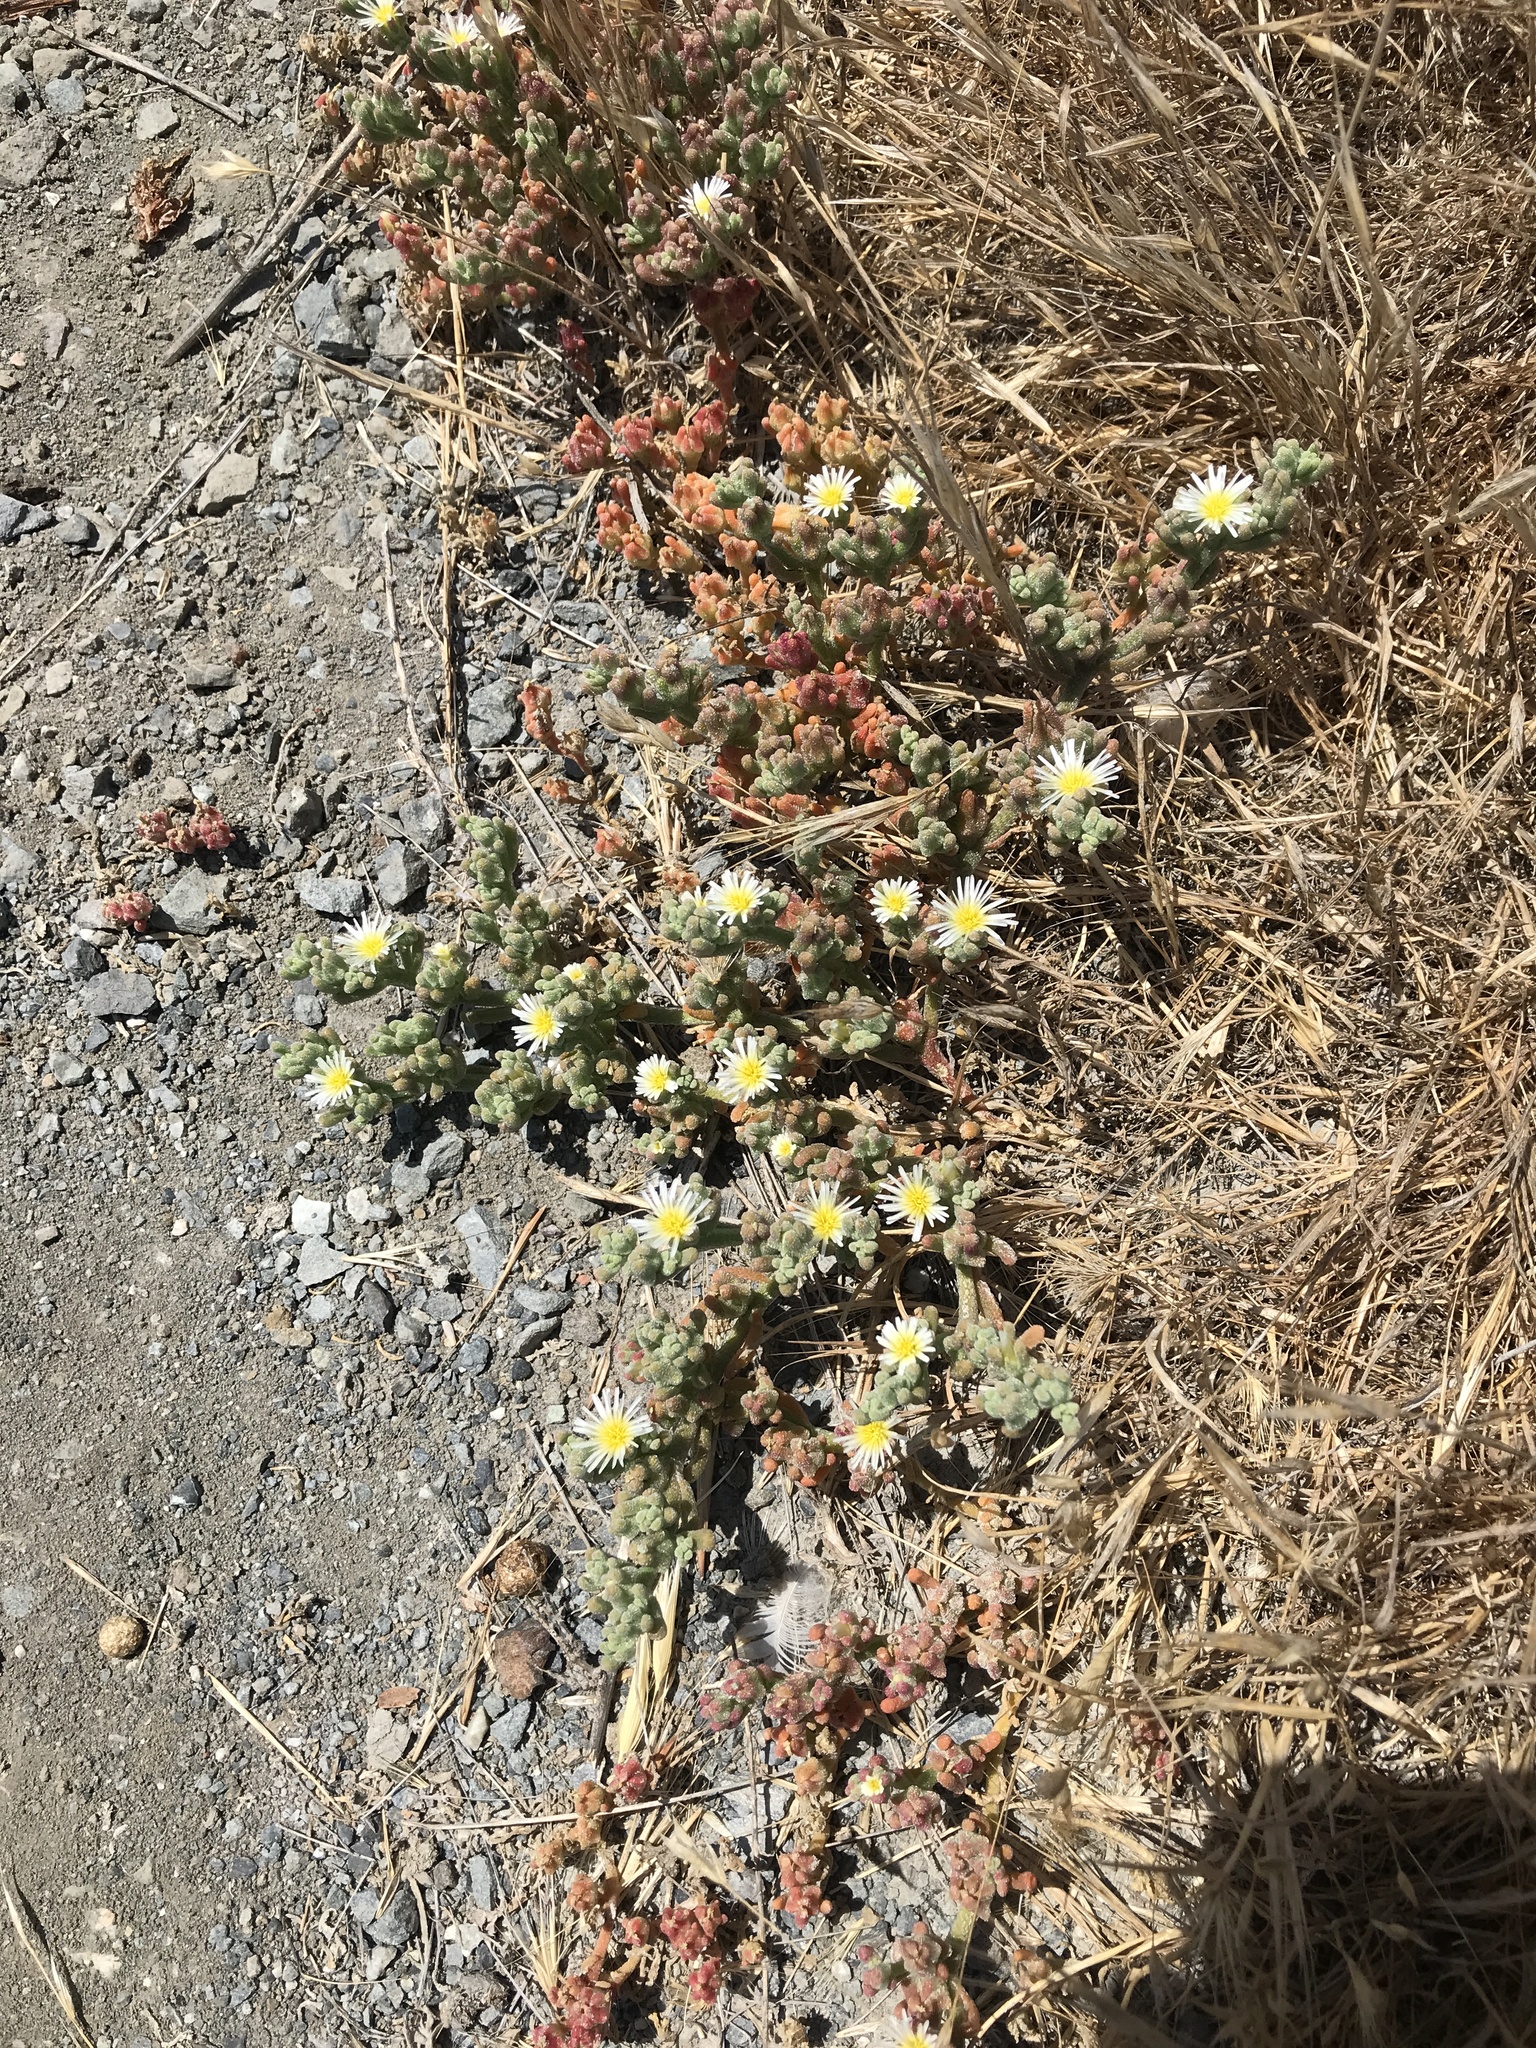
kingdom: Plantae
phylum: Tracheophyta
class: Magnoliopsida
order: Caryophyllales
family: Aizoaceae
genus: Mesembryanthemum
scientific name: Mesembryanthemum nodiflorum
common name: Slenderleaf iceplant
